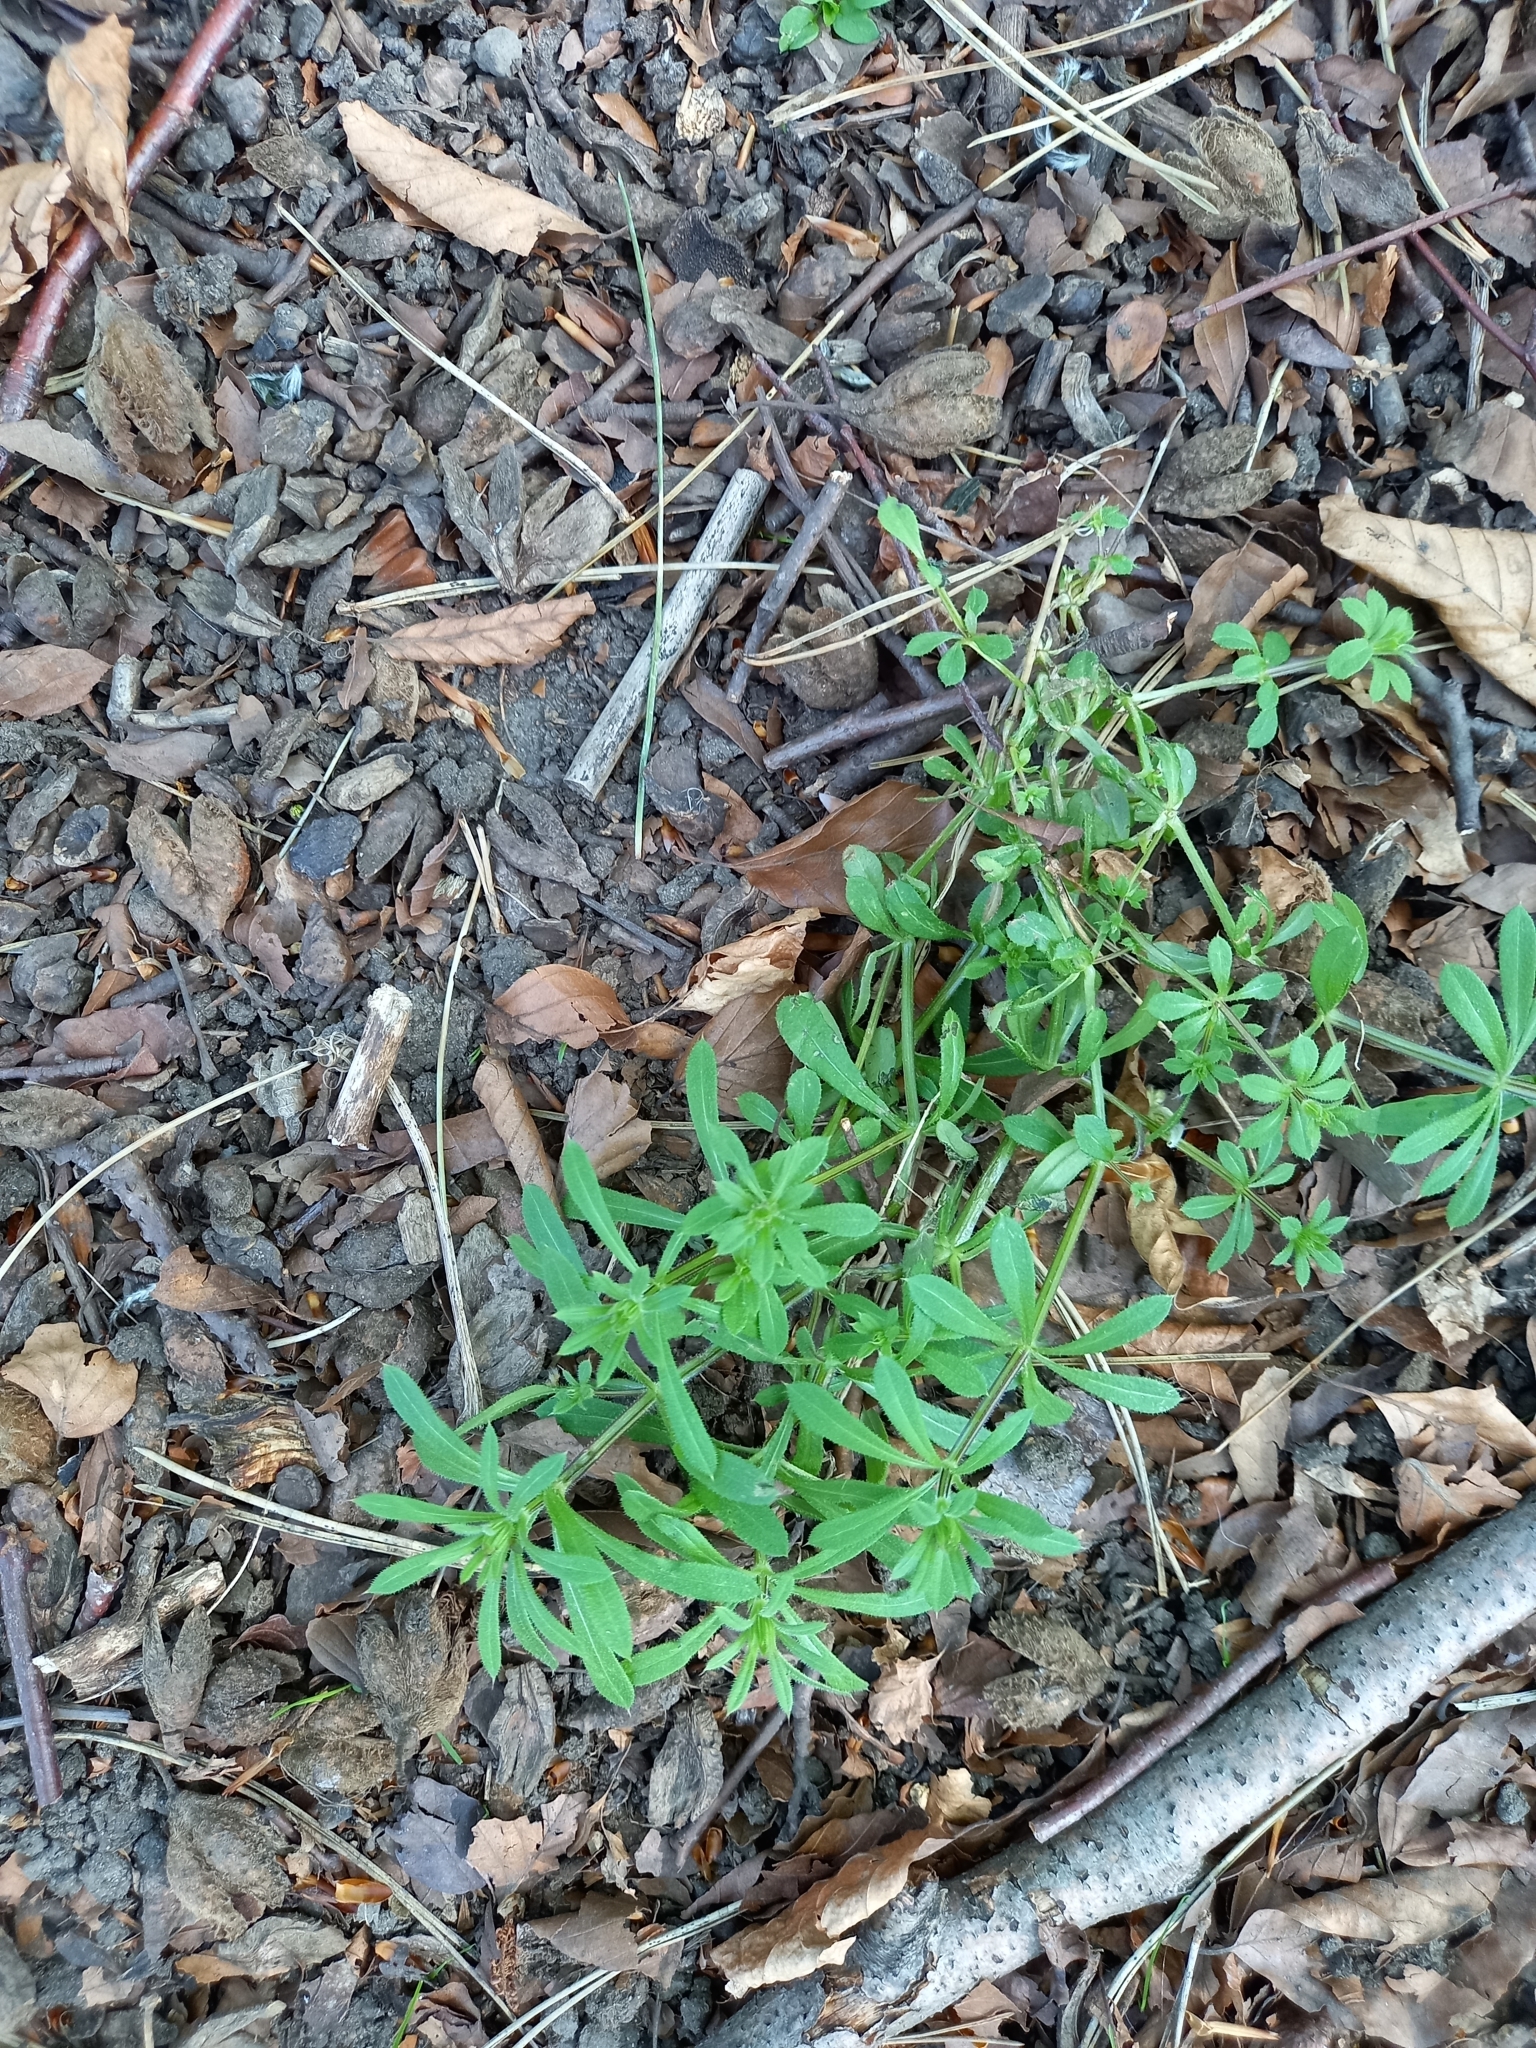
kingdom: Plantae
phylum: Tracheophyta
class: Magnoliopsida
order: Gentianales
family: Rubiaceae
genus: Galium
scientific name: Galium aparine
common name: Cleavers
